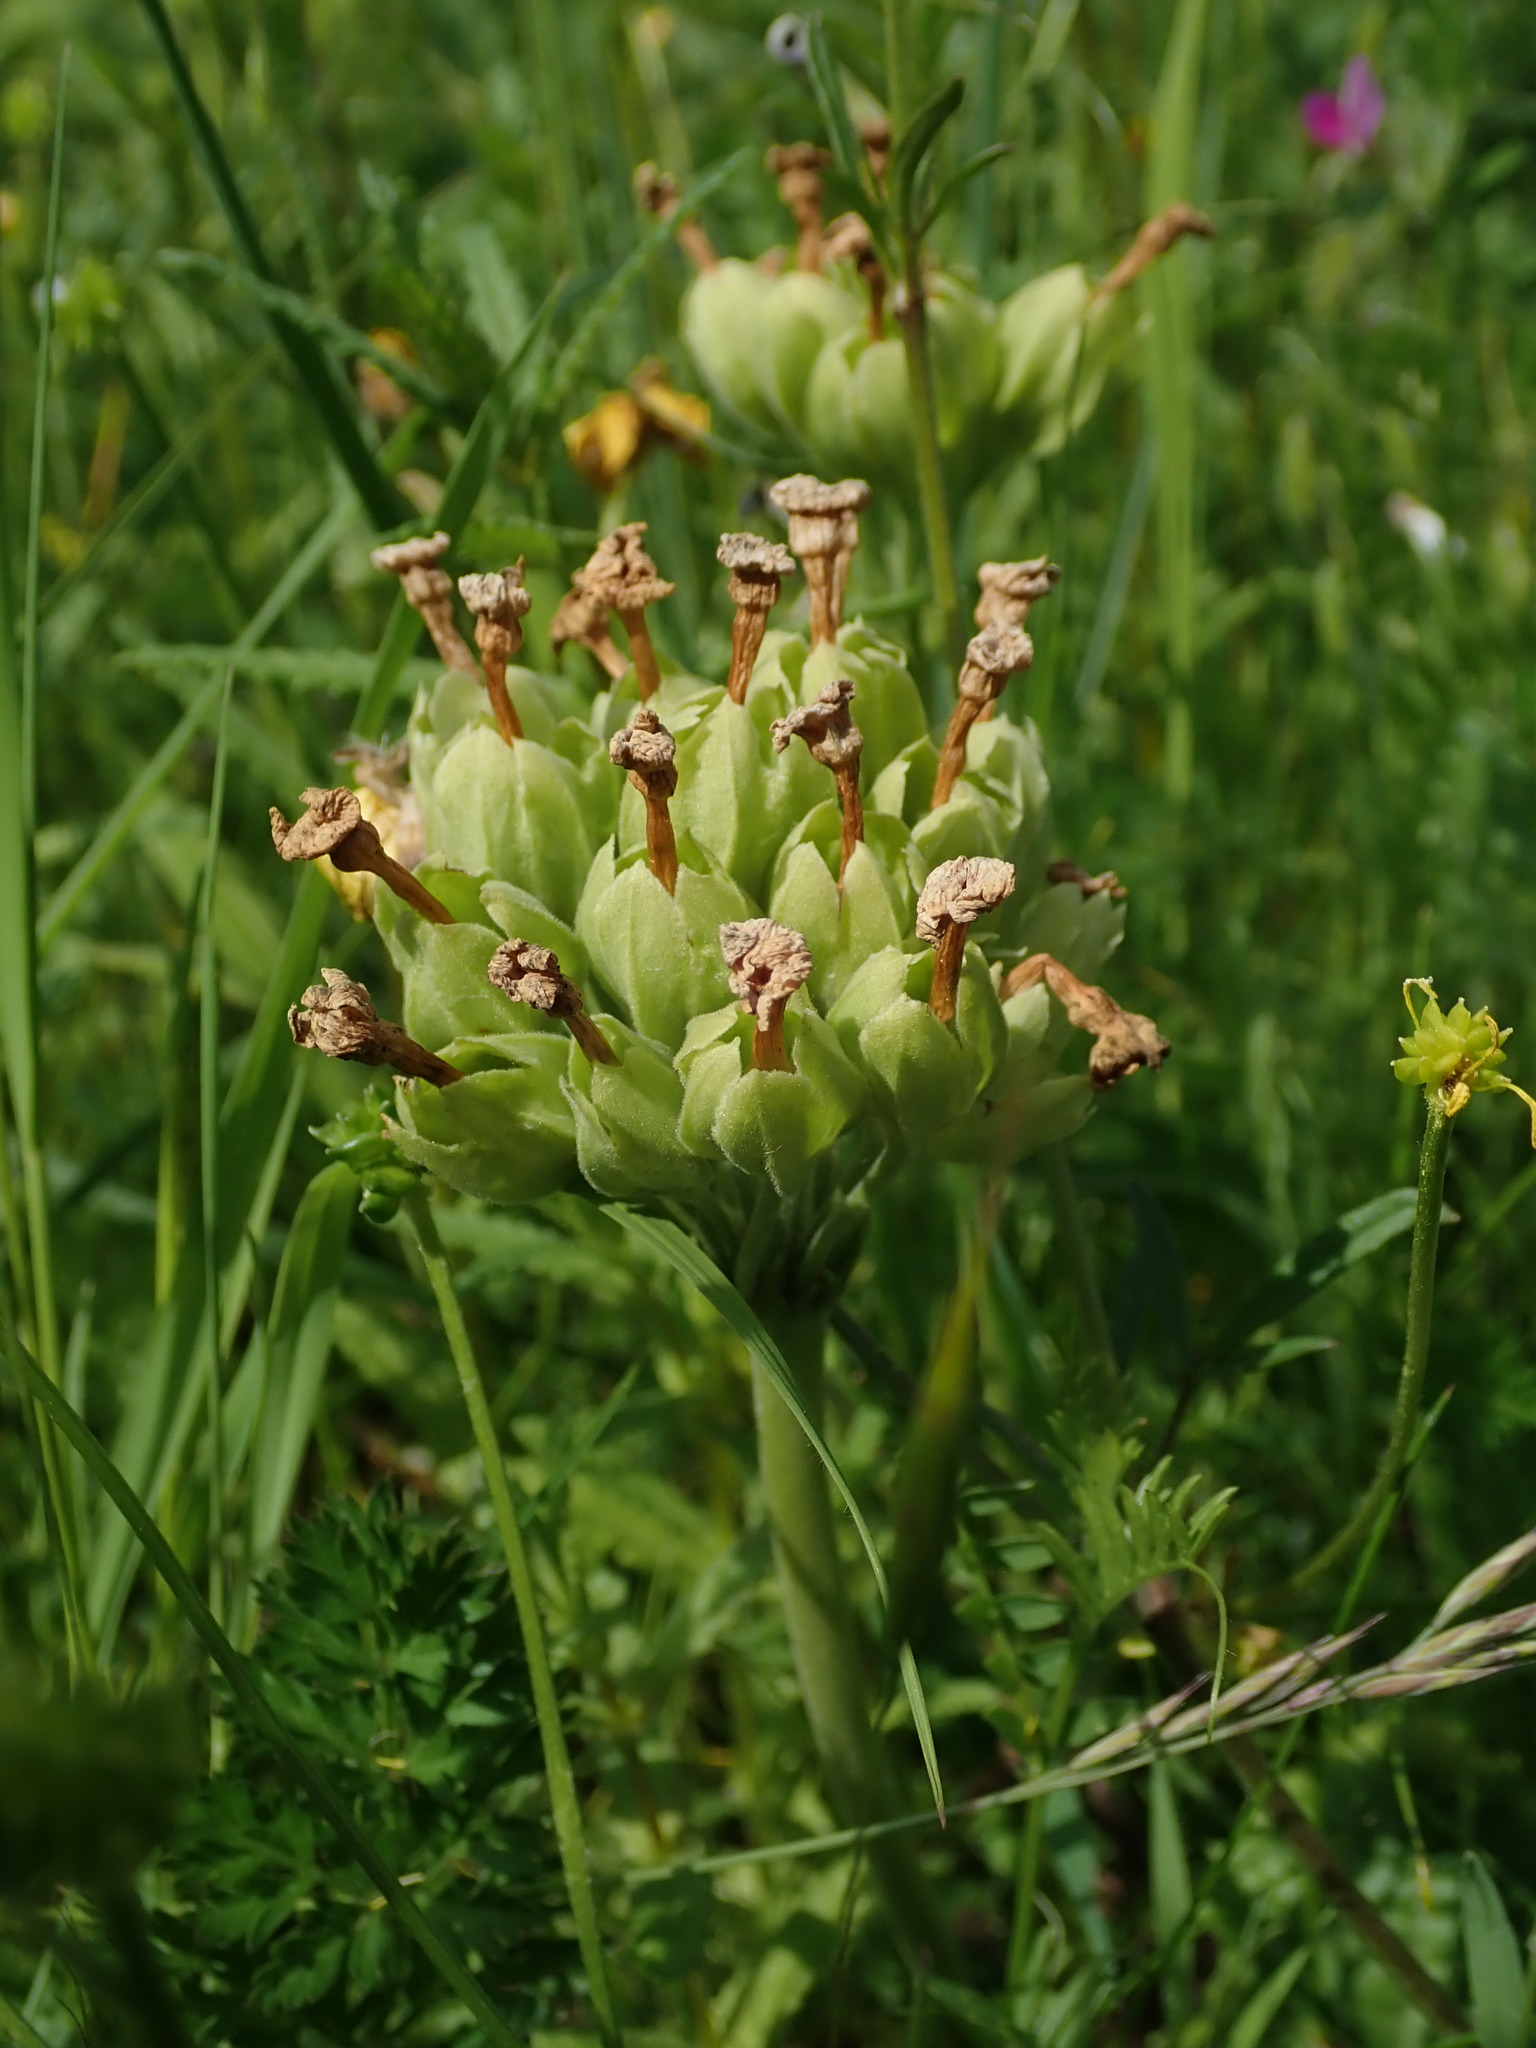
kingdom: Plantae
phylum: Tracheophyta
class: Magnoliopsida
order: Ericales
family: Primulaceae
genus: Primula
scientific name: Primula veris
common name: Cowslip
